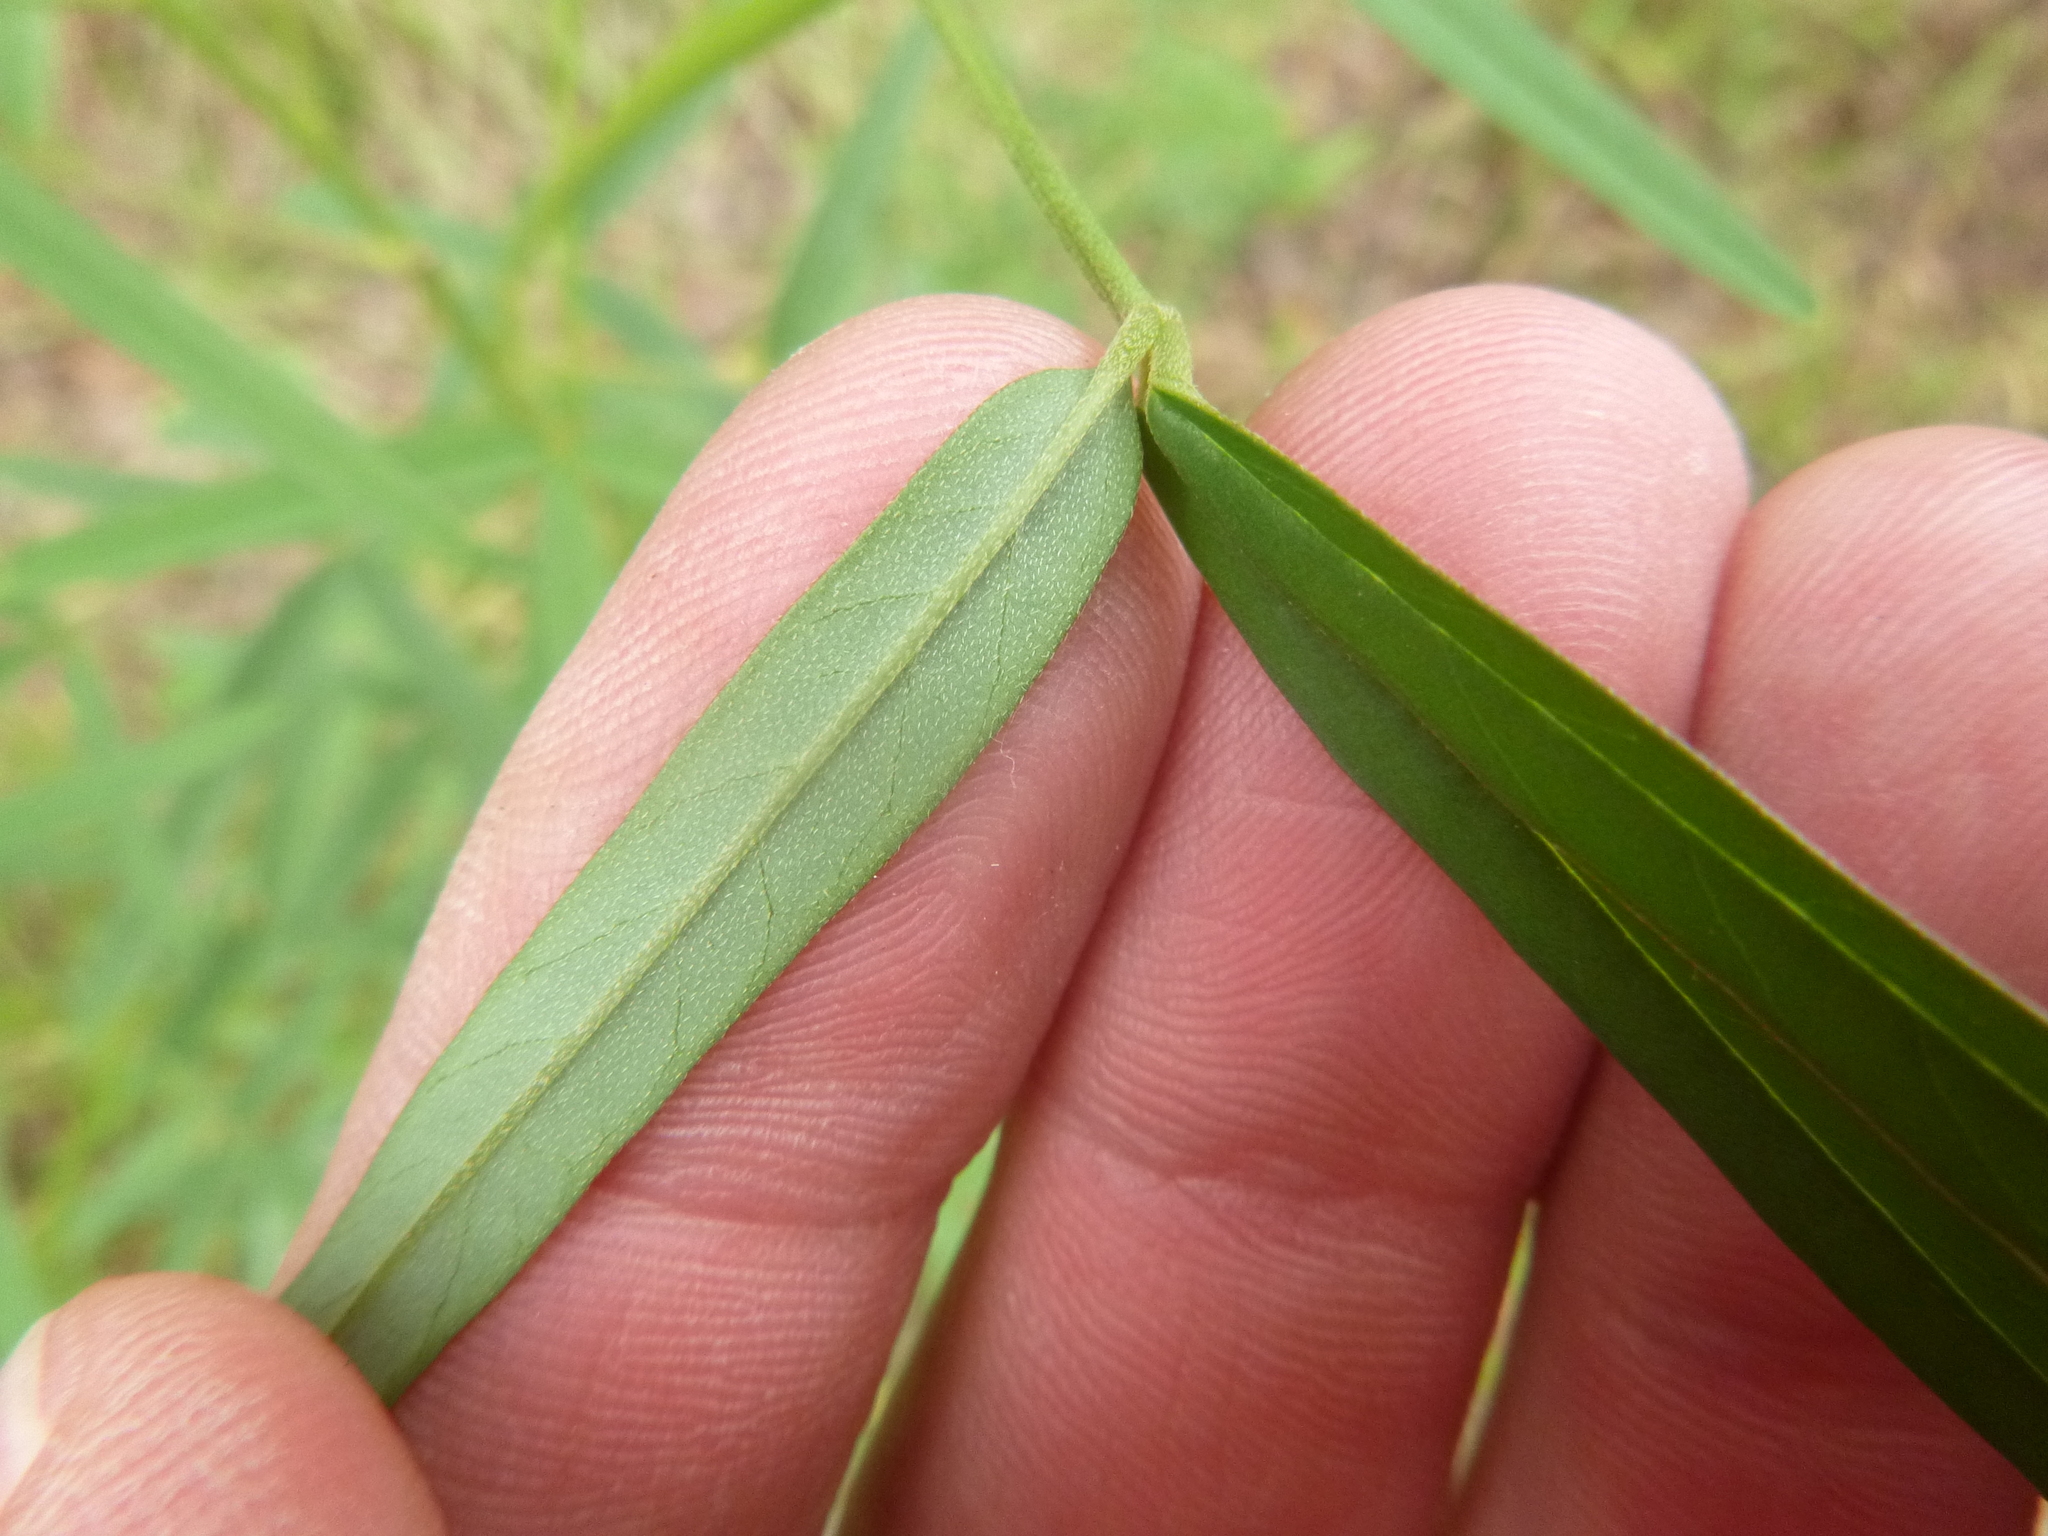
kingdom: Plantae
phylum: Tracheophyta
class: Magnoliopsida
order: Fabales
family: Fabaceae
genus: Crotalaria
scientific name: Crotalaria lanceolata
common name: Lanceleaf rattlebox
